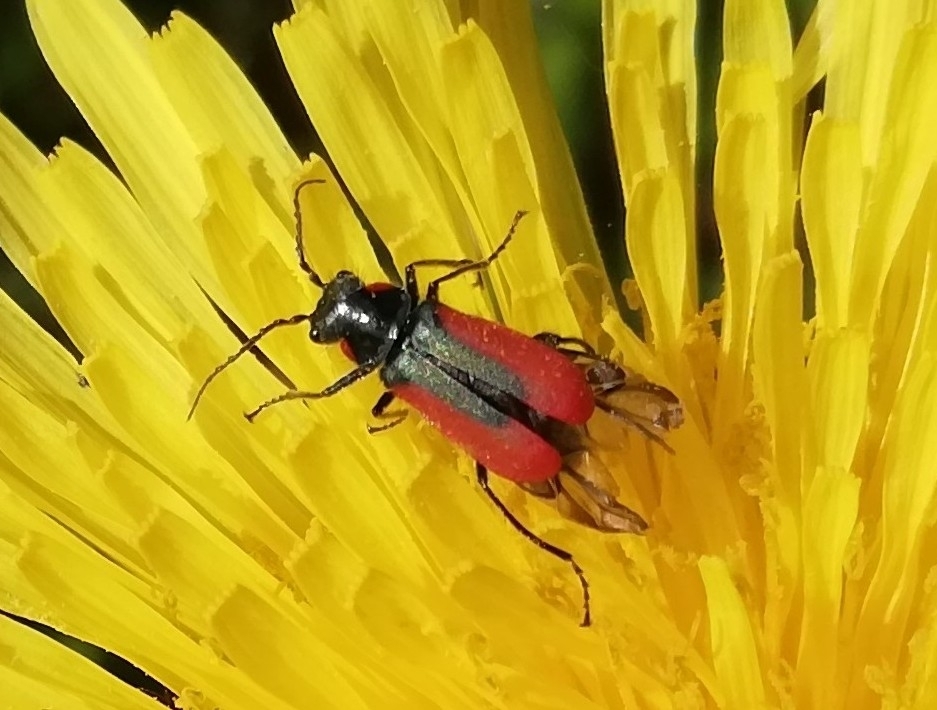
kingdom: Animalia
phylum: Arthropoda
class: Insecta
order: Coleoptera
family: Melyridae
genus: Malachius
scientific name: Malachius aeneus
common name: Scarlet malachite beetle
